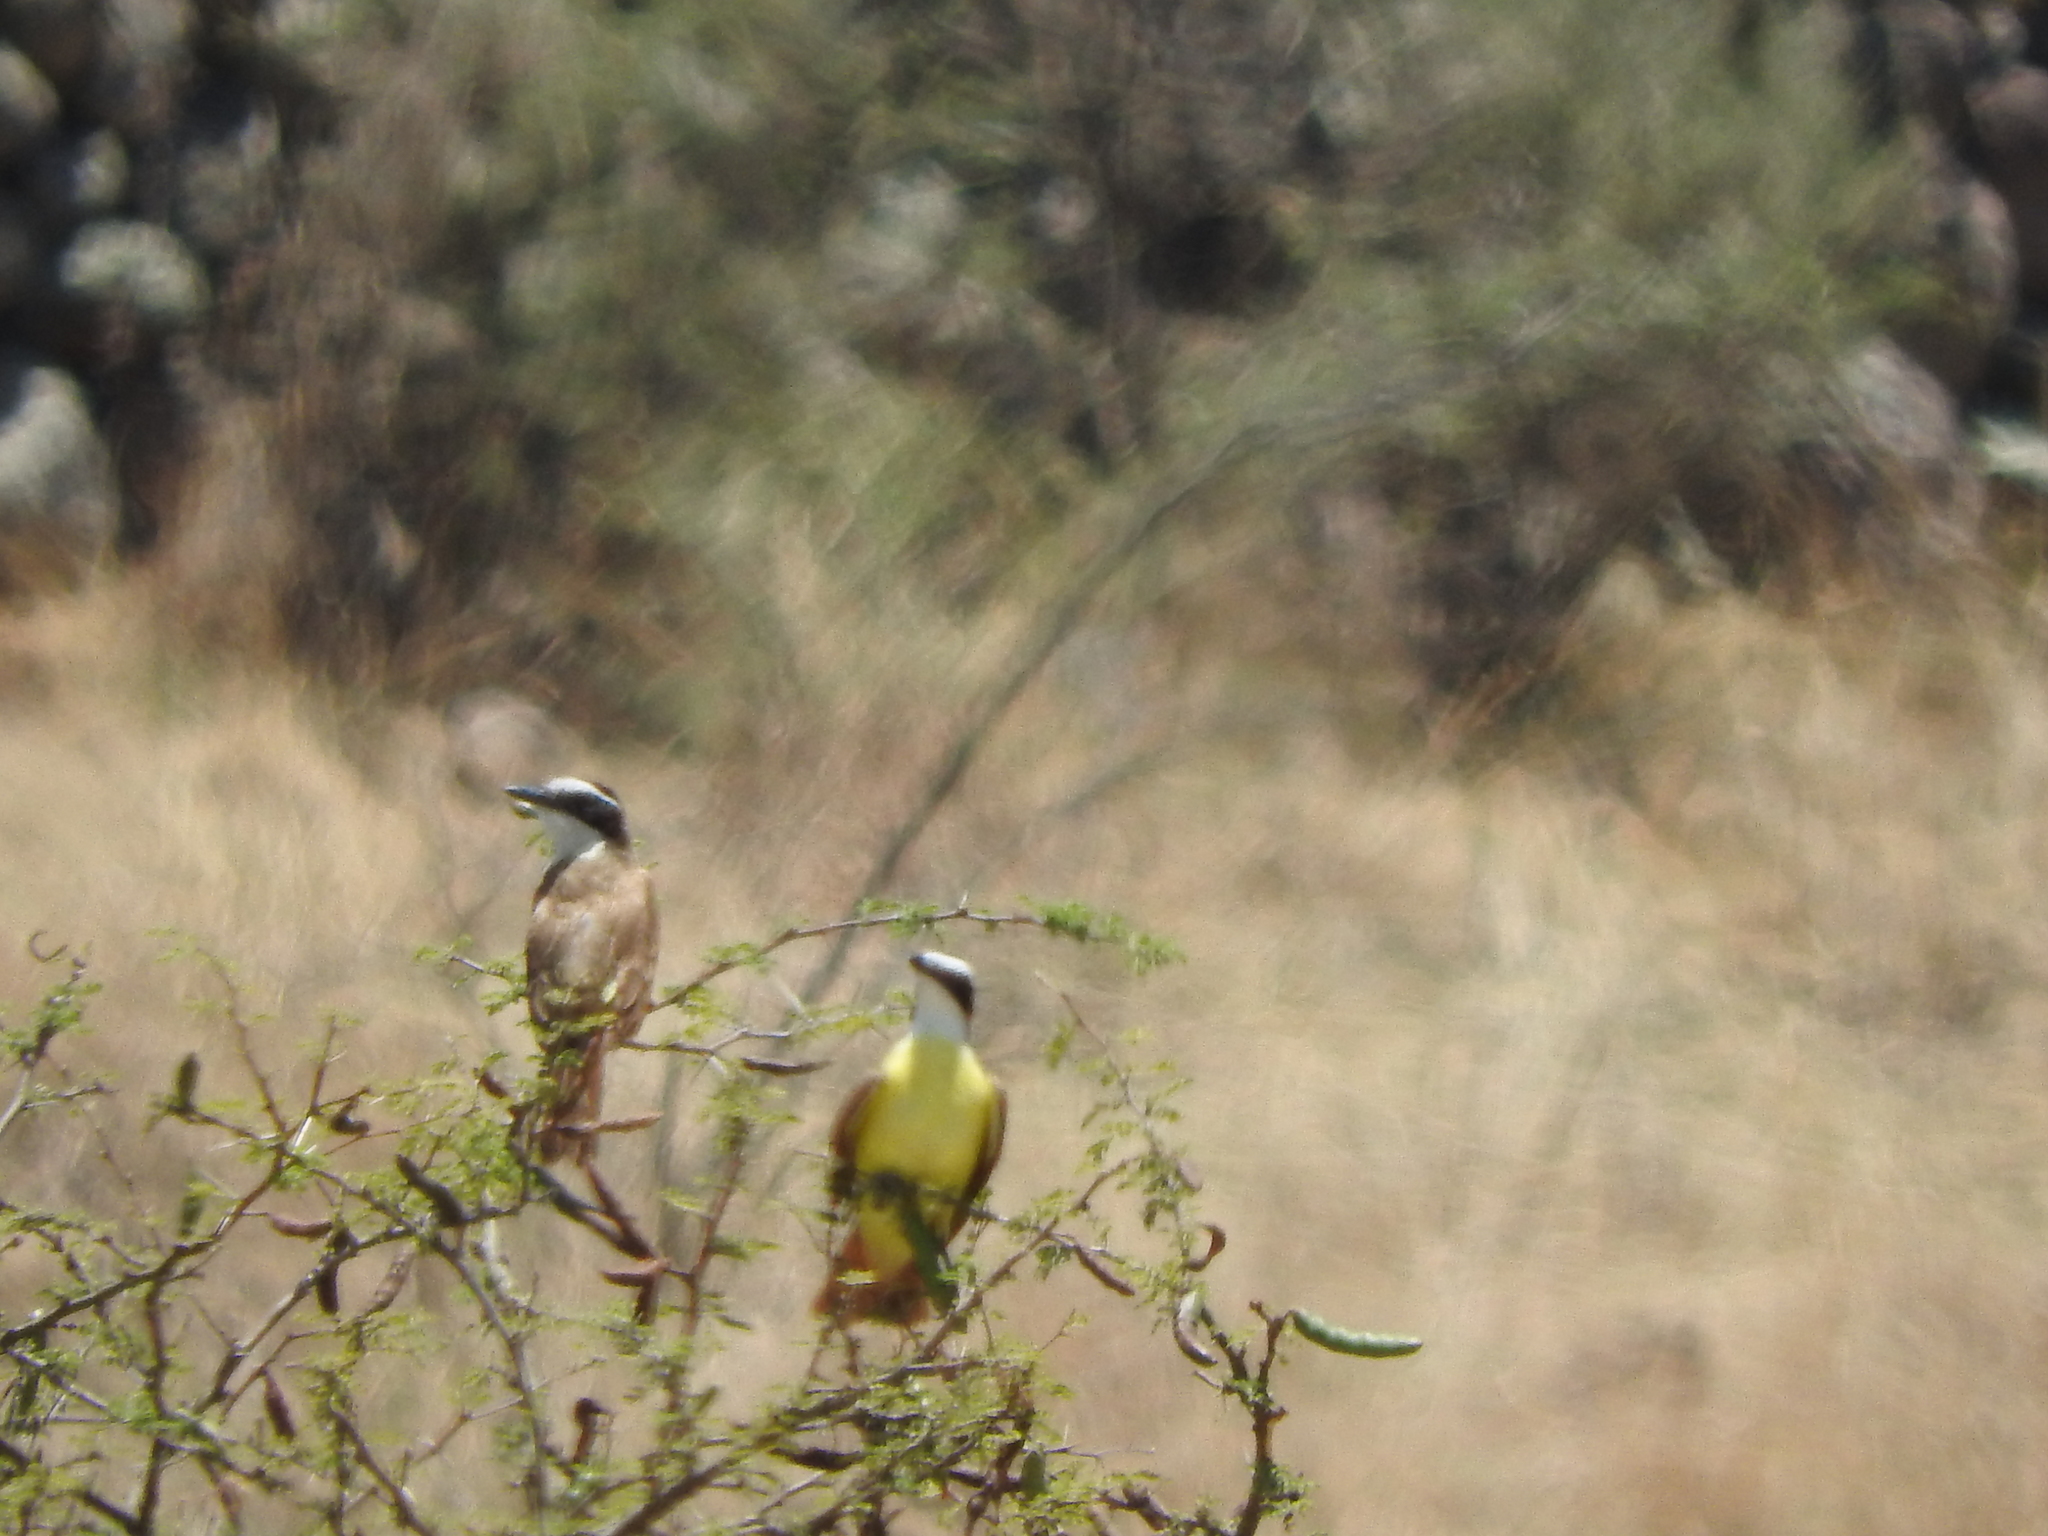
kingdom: Animalia
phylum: Chordata
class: Aves
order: Passeriformes
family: Tyrannidae
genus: Pitangus
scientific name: Pitangus sulphuratus
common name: Great kiskadee
